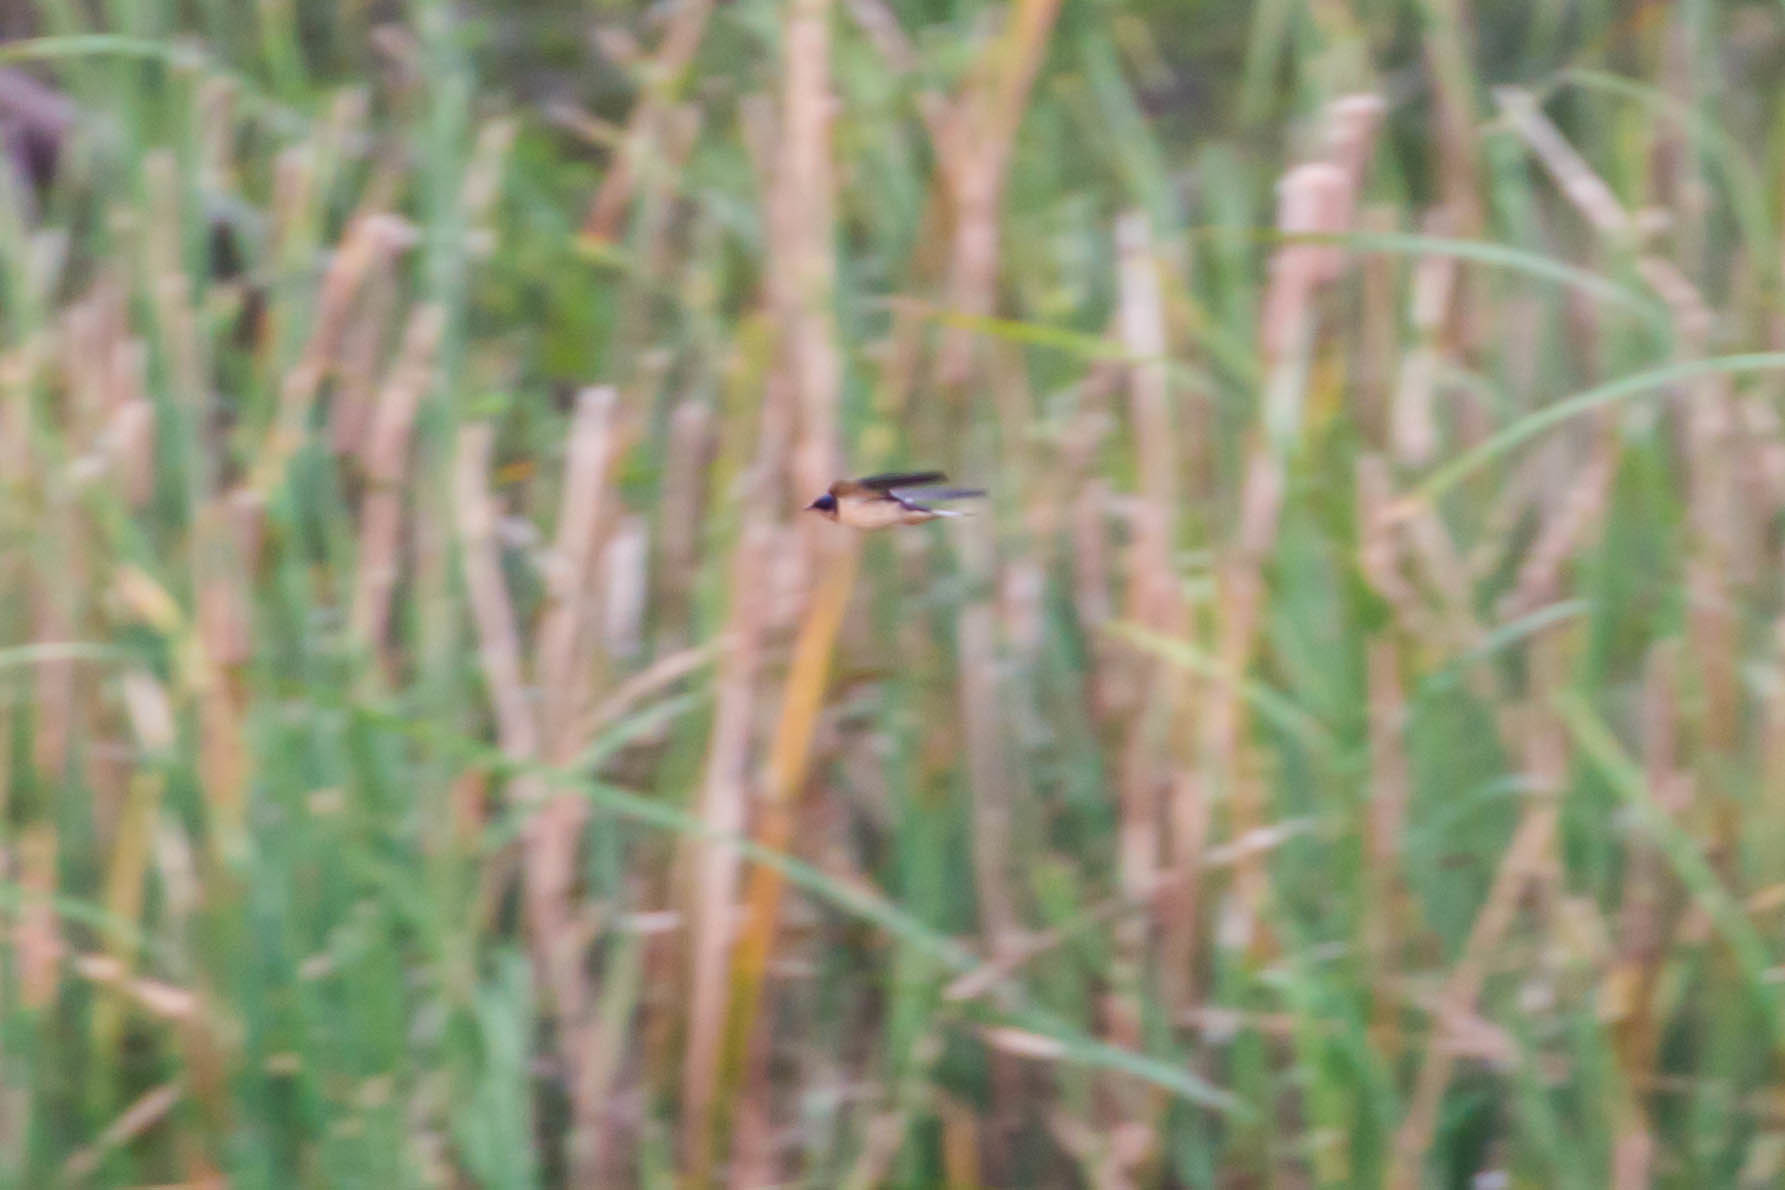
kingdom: Animalia
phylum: Chordata
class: Aves
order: Passeriformes
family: Hirundinidae
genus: Hirundo
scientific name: Hirundo rustica
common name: Barn swallow
